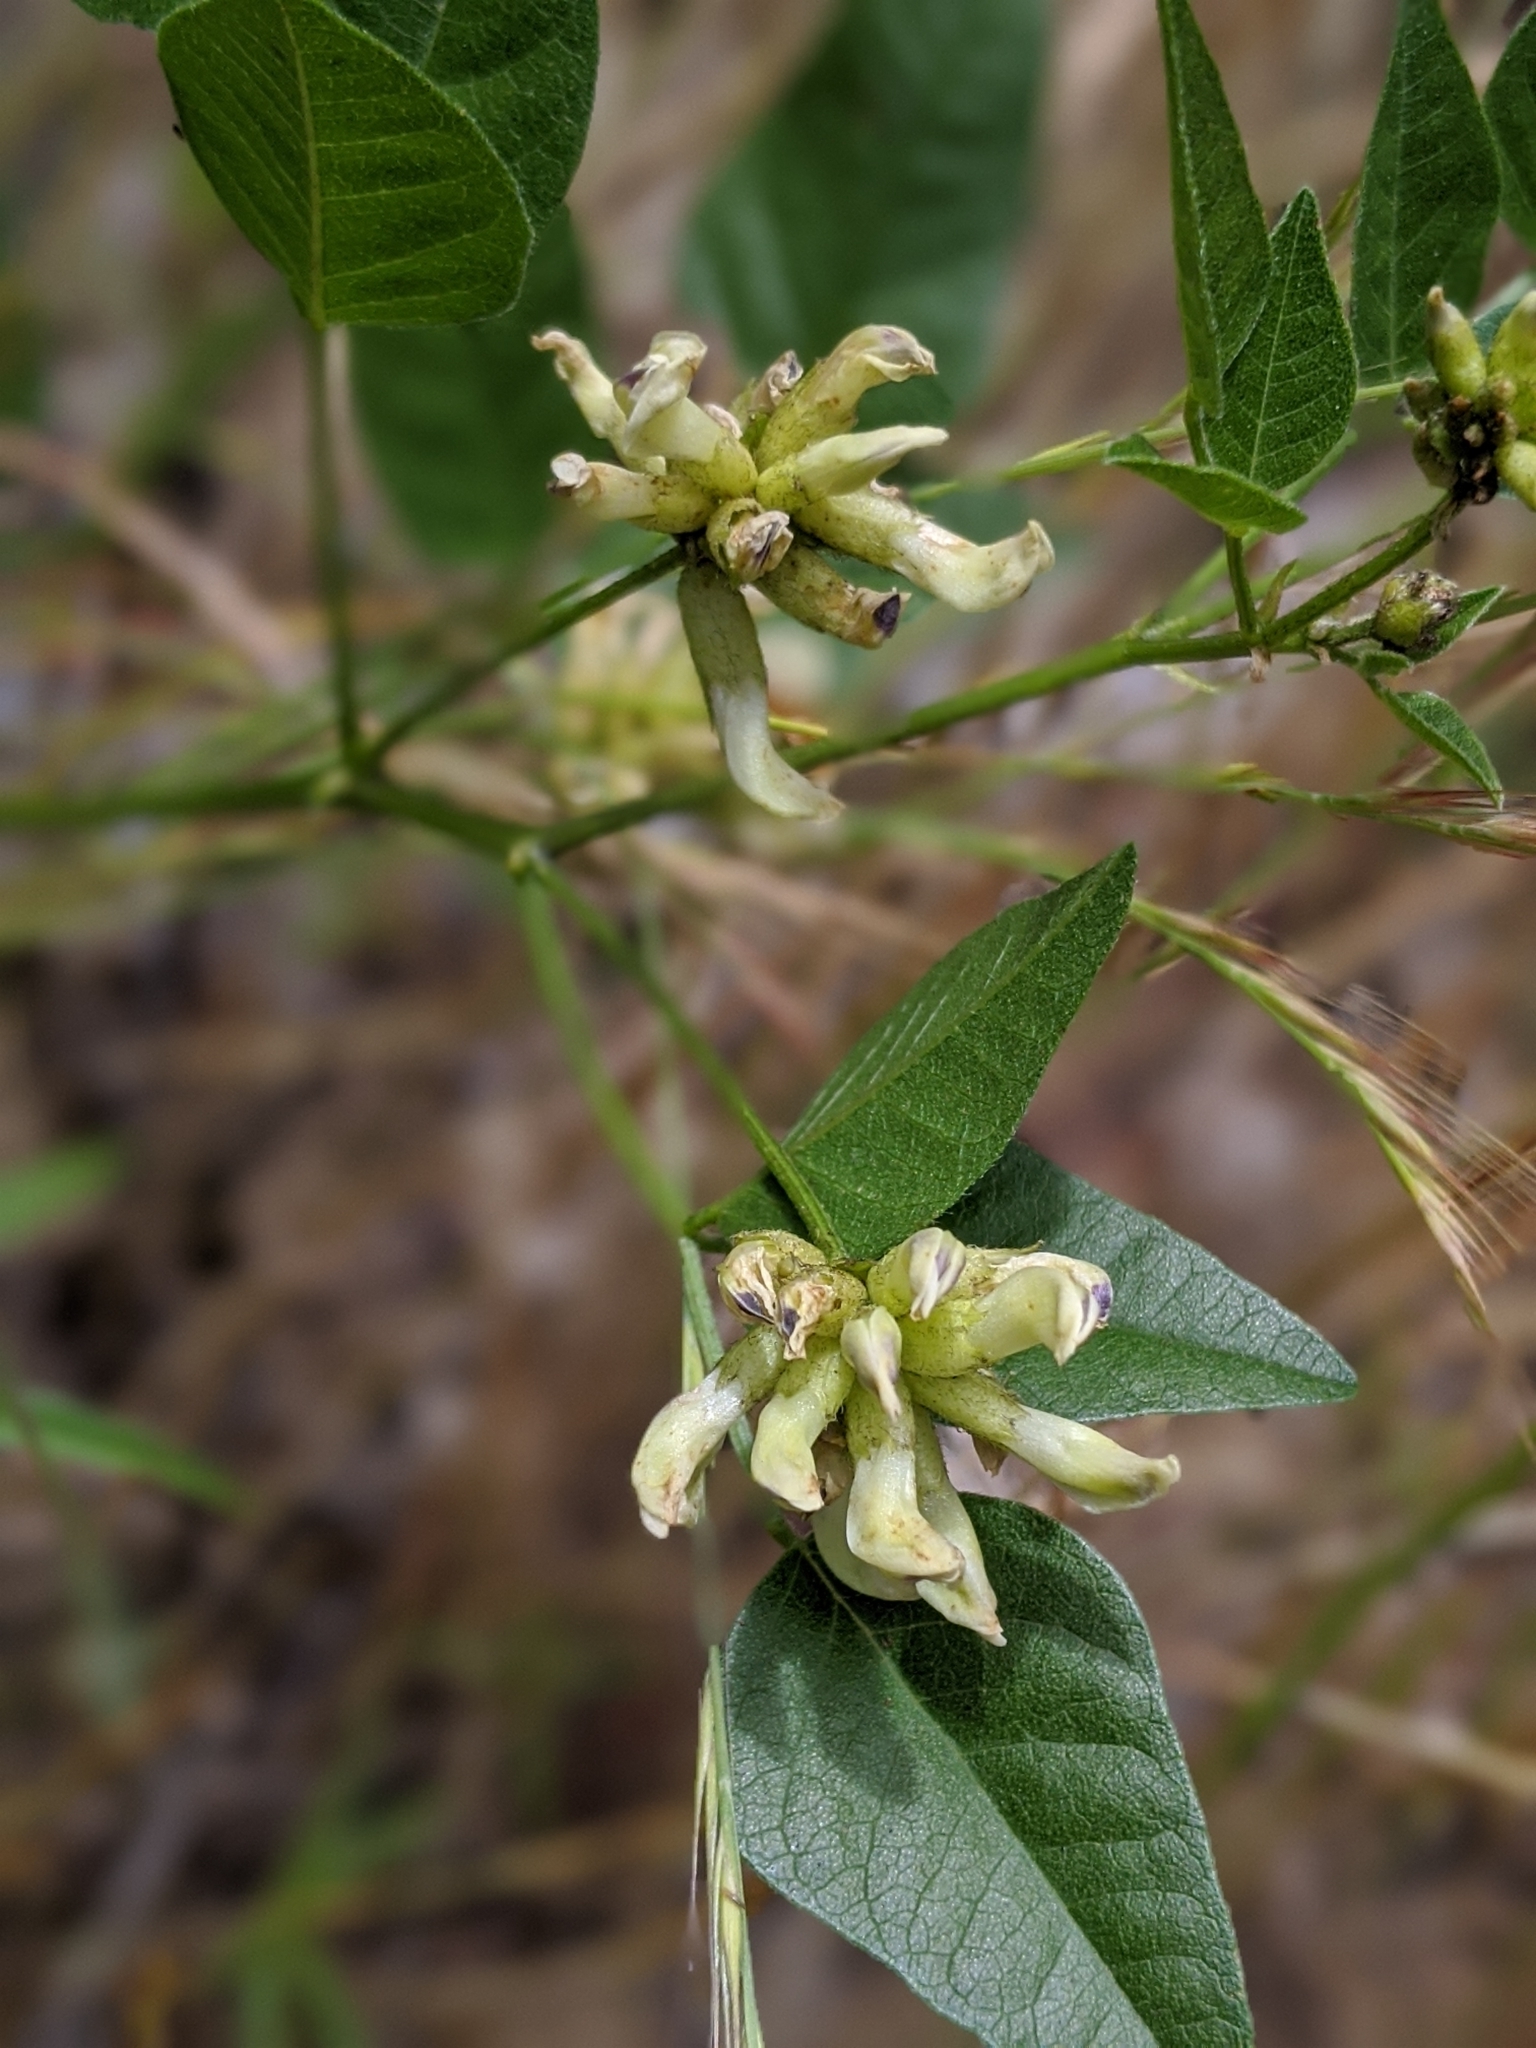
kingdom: Plantae
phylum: Tracheophyta
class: Magnoliopsida
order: Fabales
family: Fabaceae
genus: Rupertia
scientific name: Rupertia physodes
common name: California-tea
